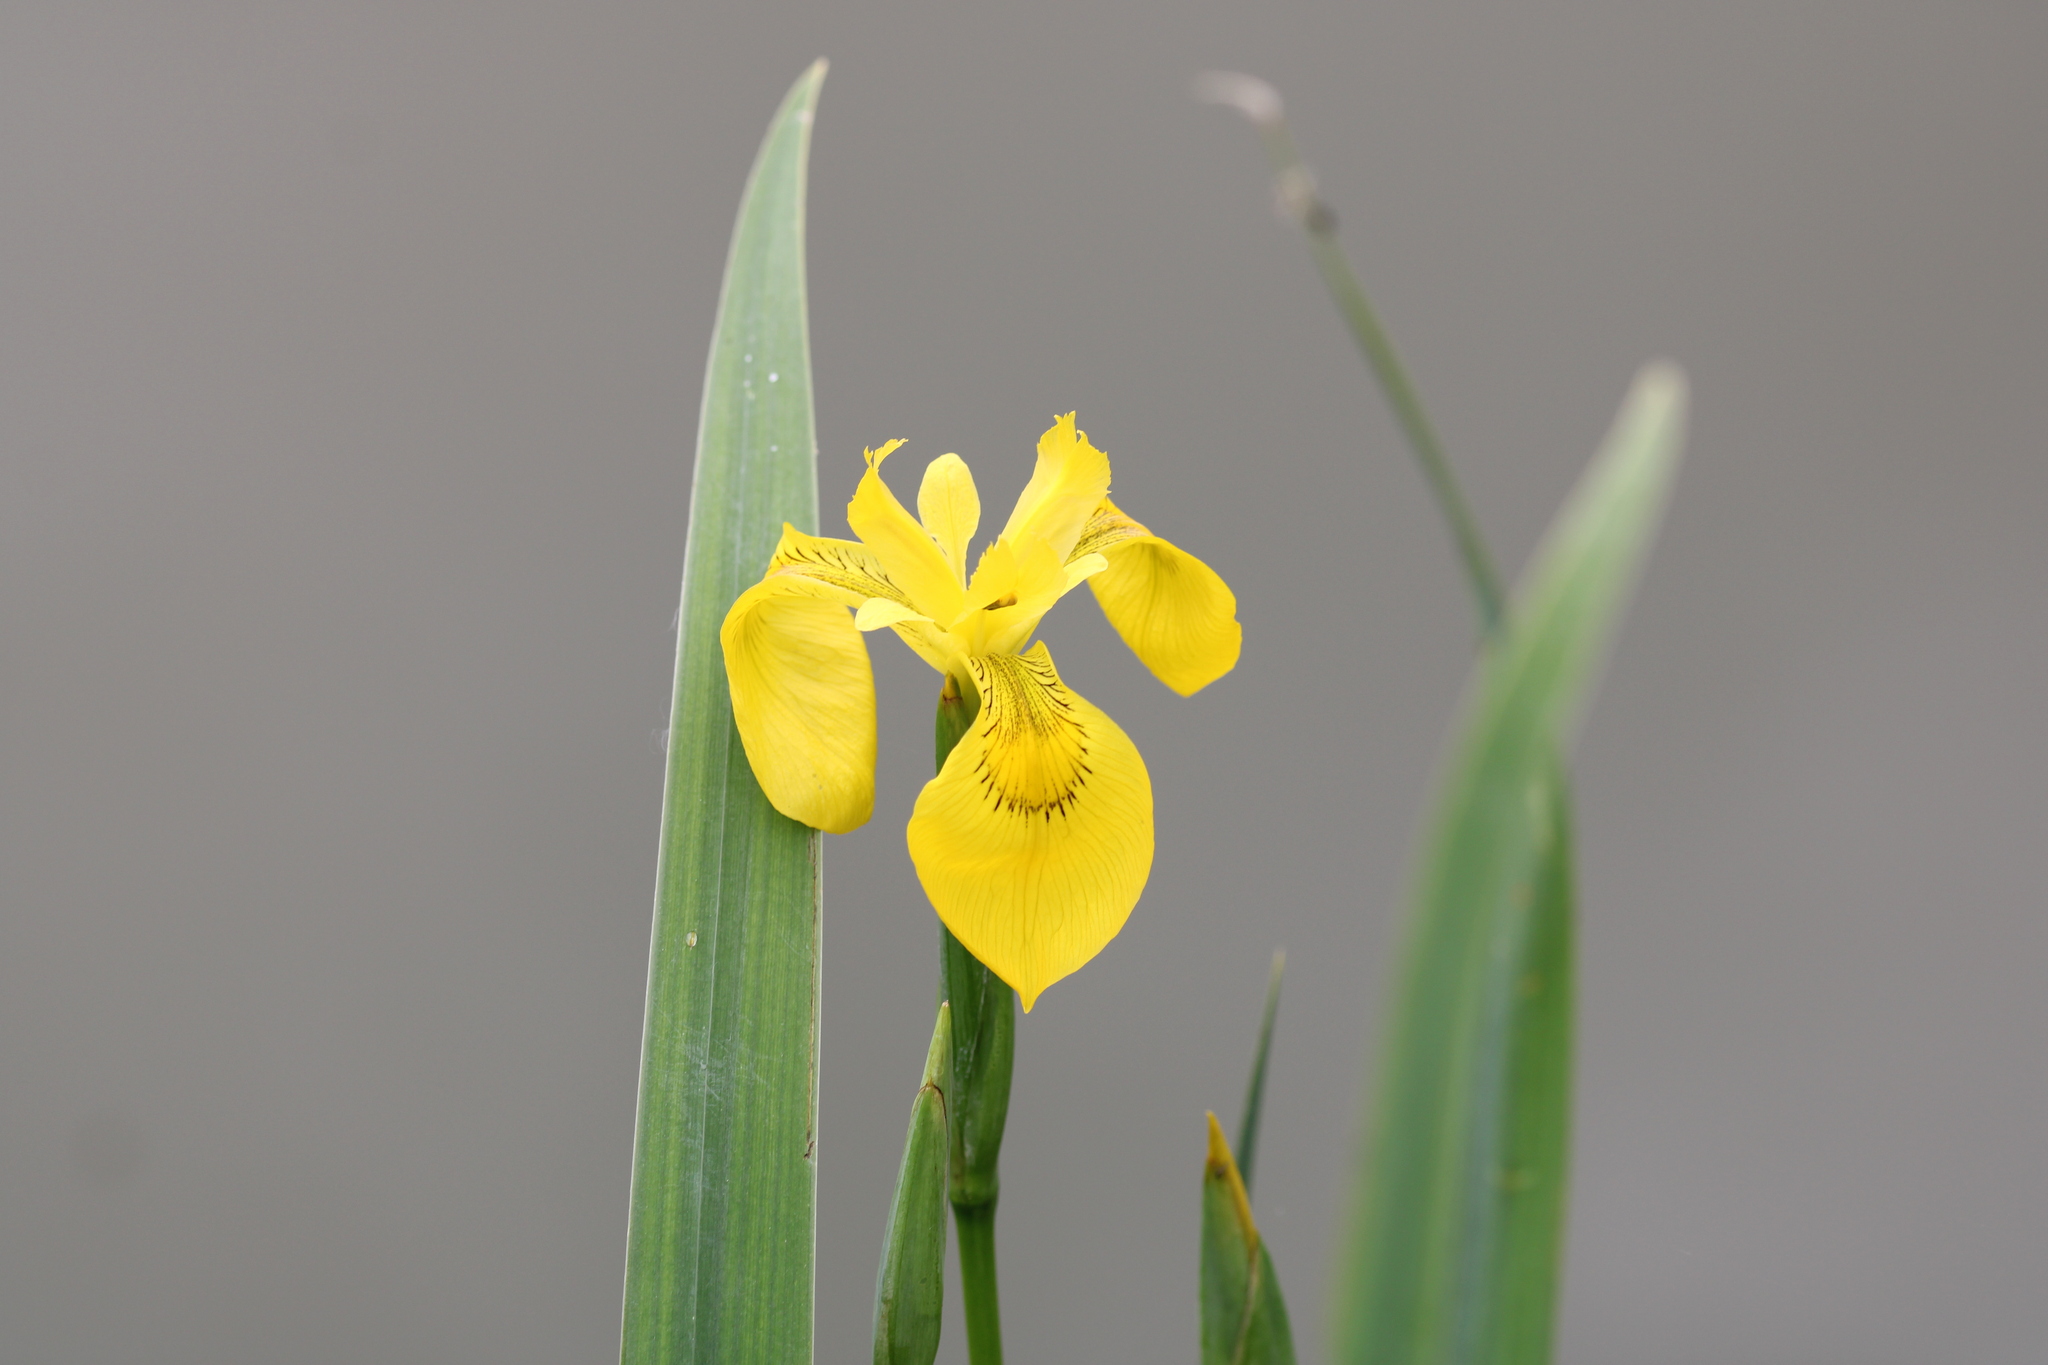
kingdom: Plantae
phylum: Tracheophyta
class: Liliopsida
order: Asparagales
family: Iridaceae
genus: Iris
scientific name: Iris pseudacorus
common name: Yellow flag
